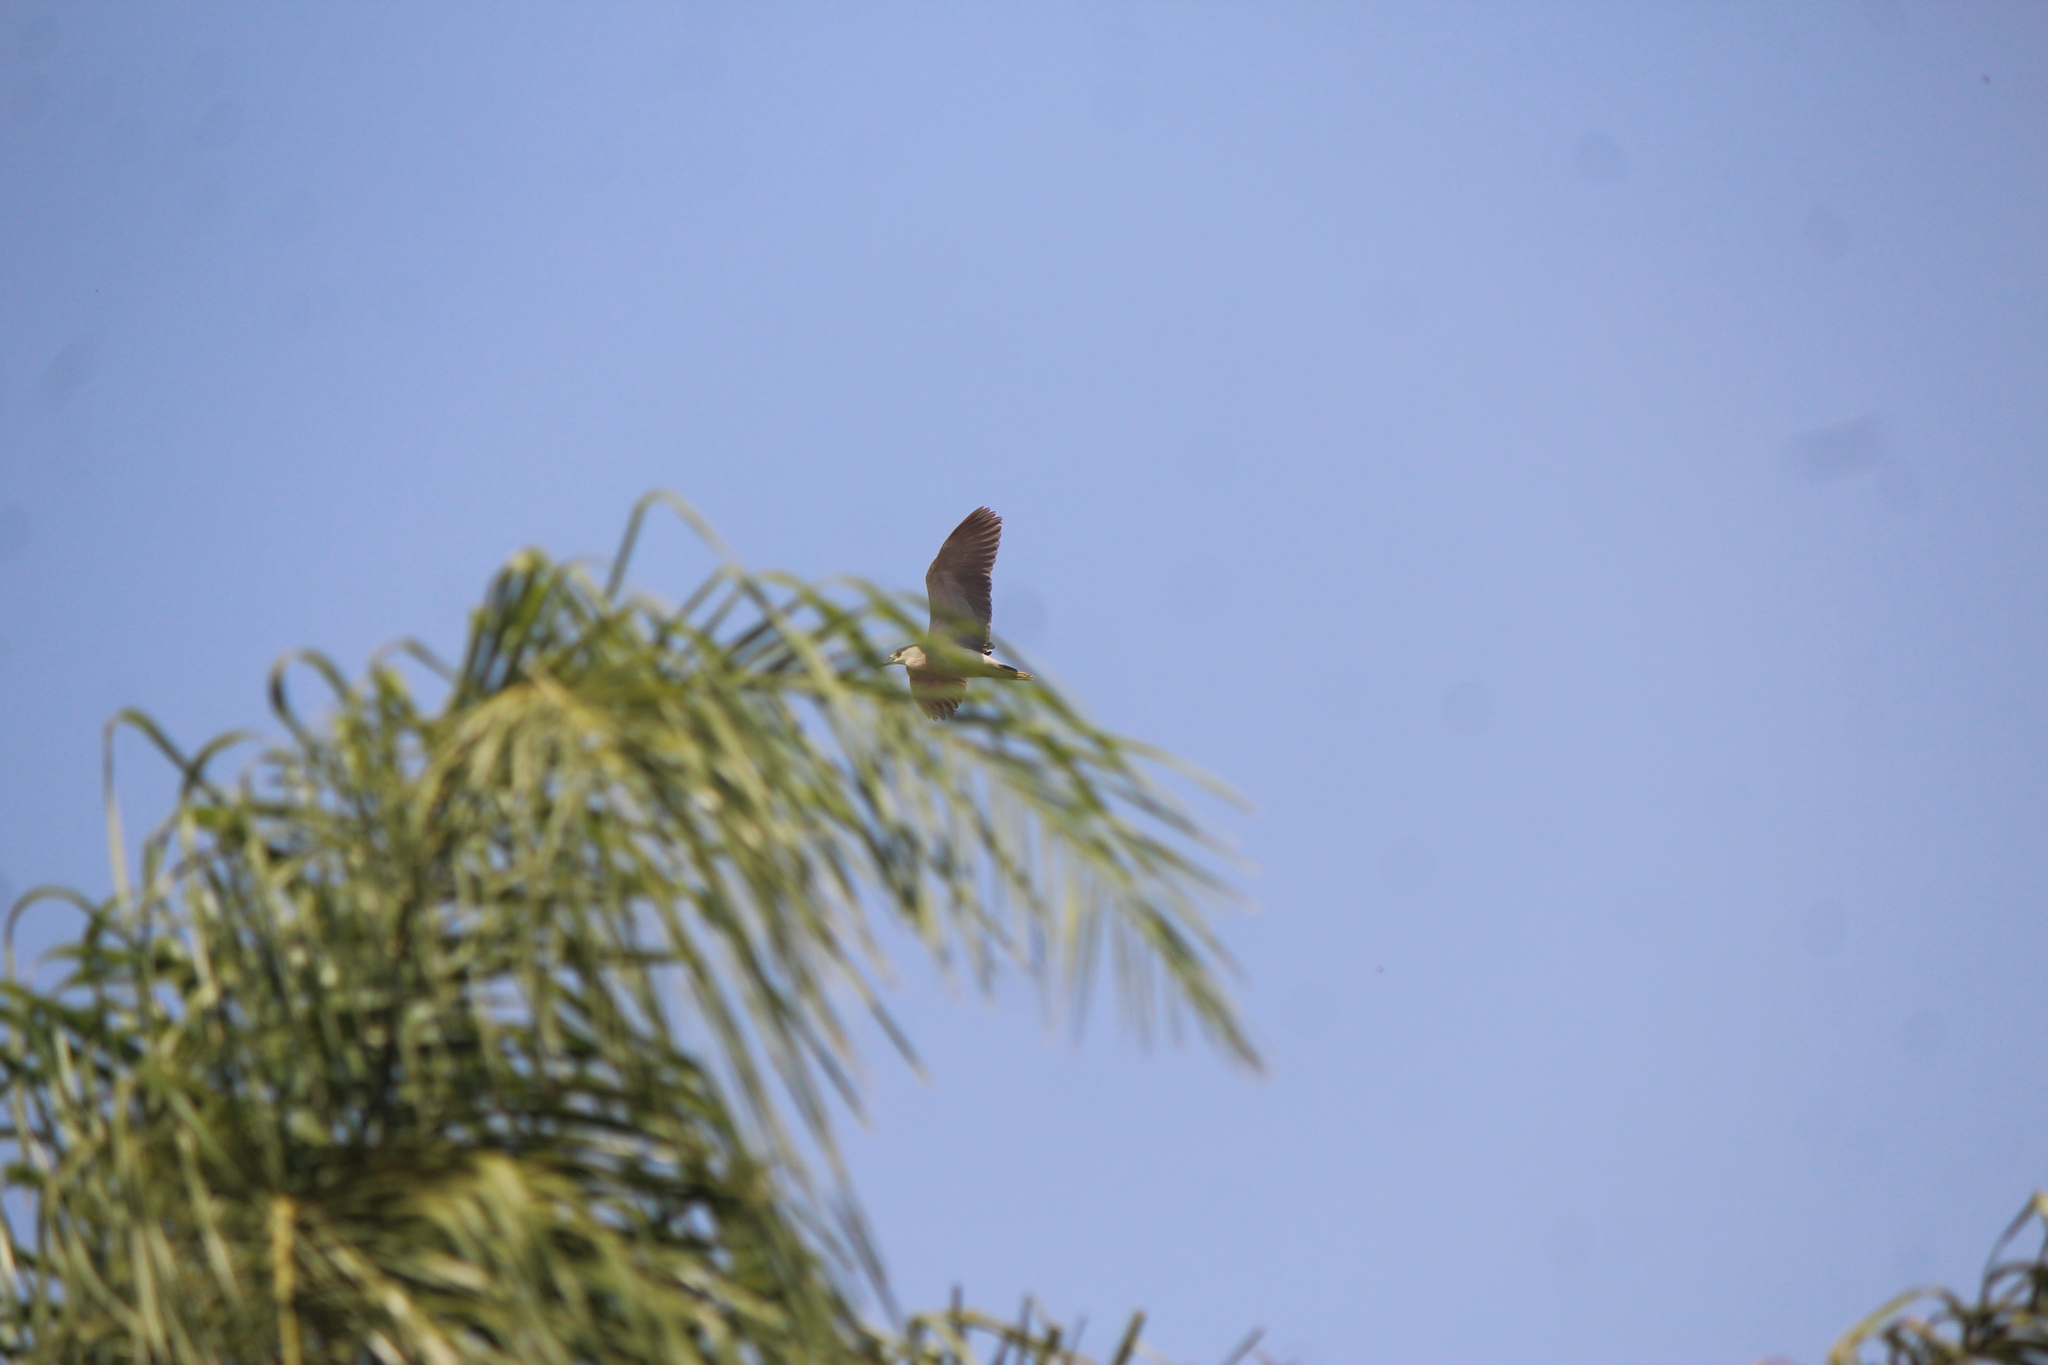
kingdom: Animalia
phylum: Chordata
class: Aves
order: Pelecaniformes
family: Ardeidae
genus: Nycticorax
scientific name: Nycticorax nycticorax
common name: Black-crowned night heron
